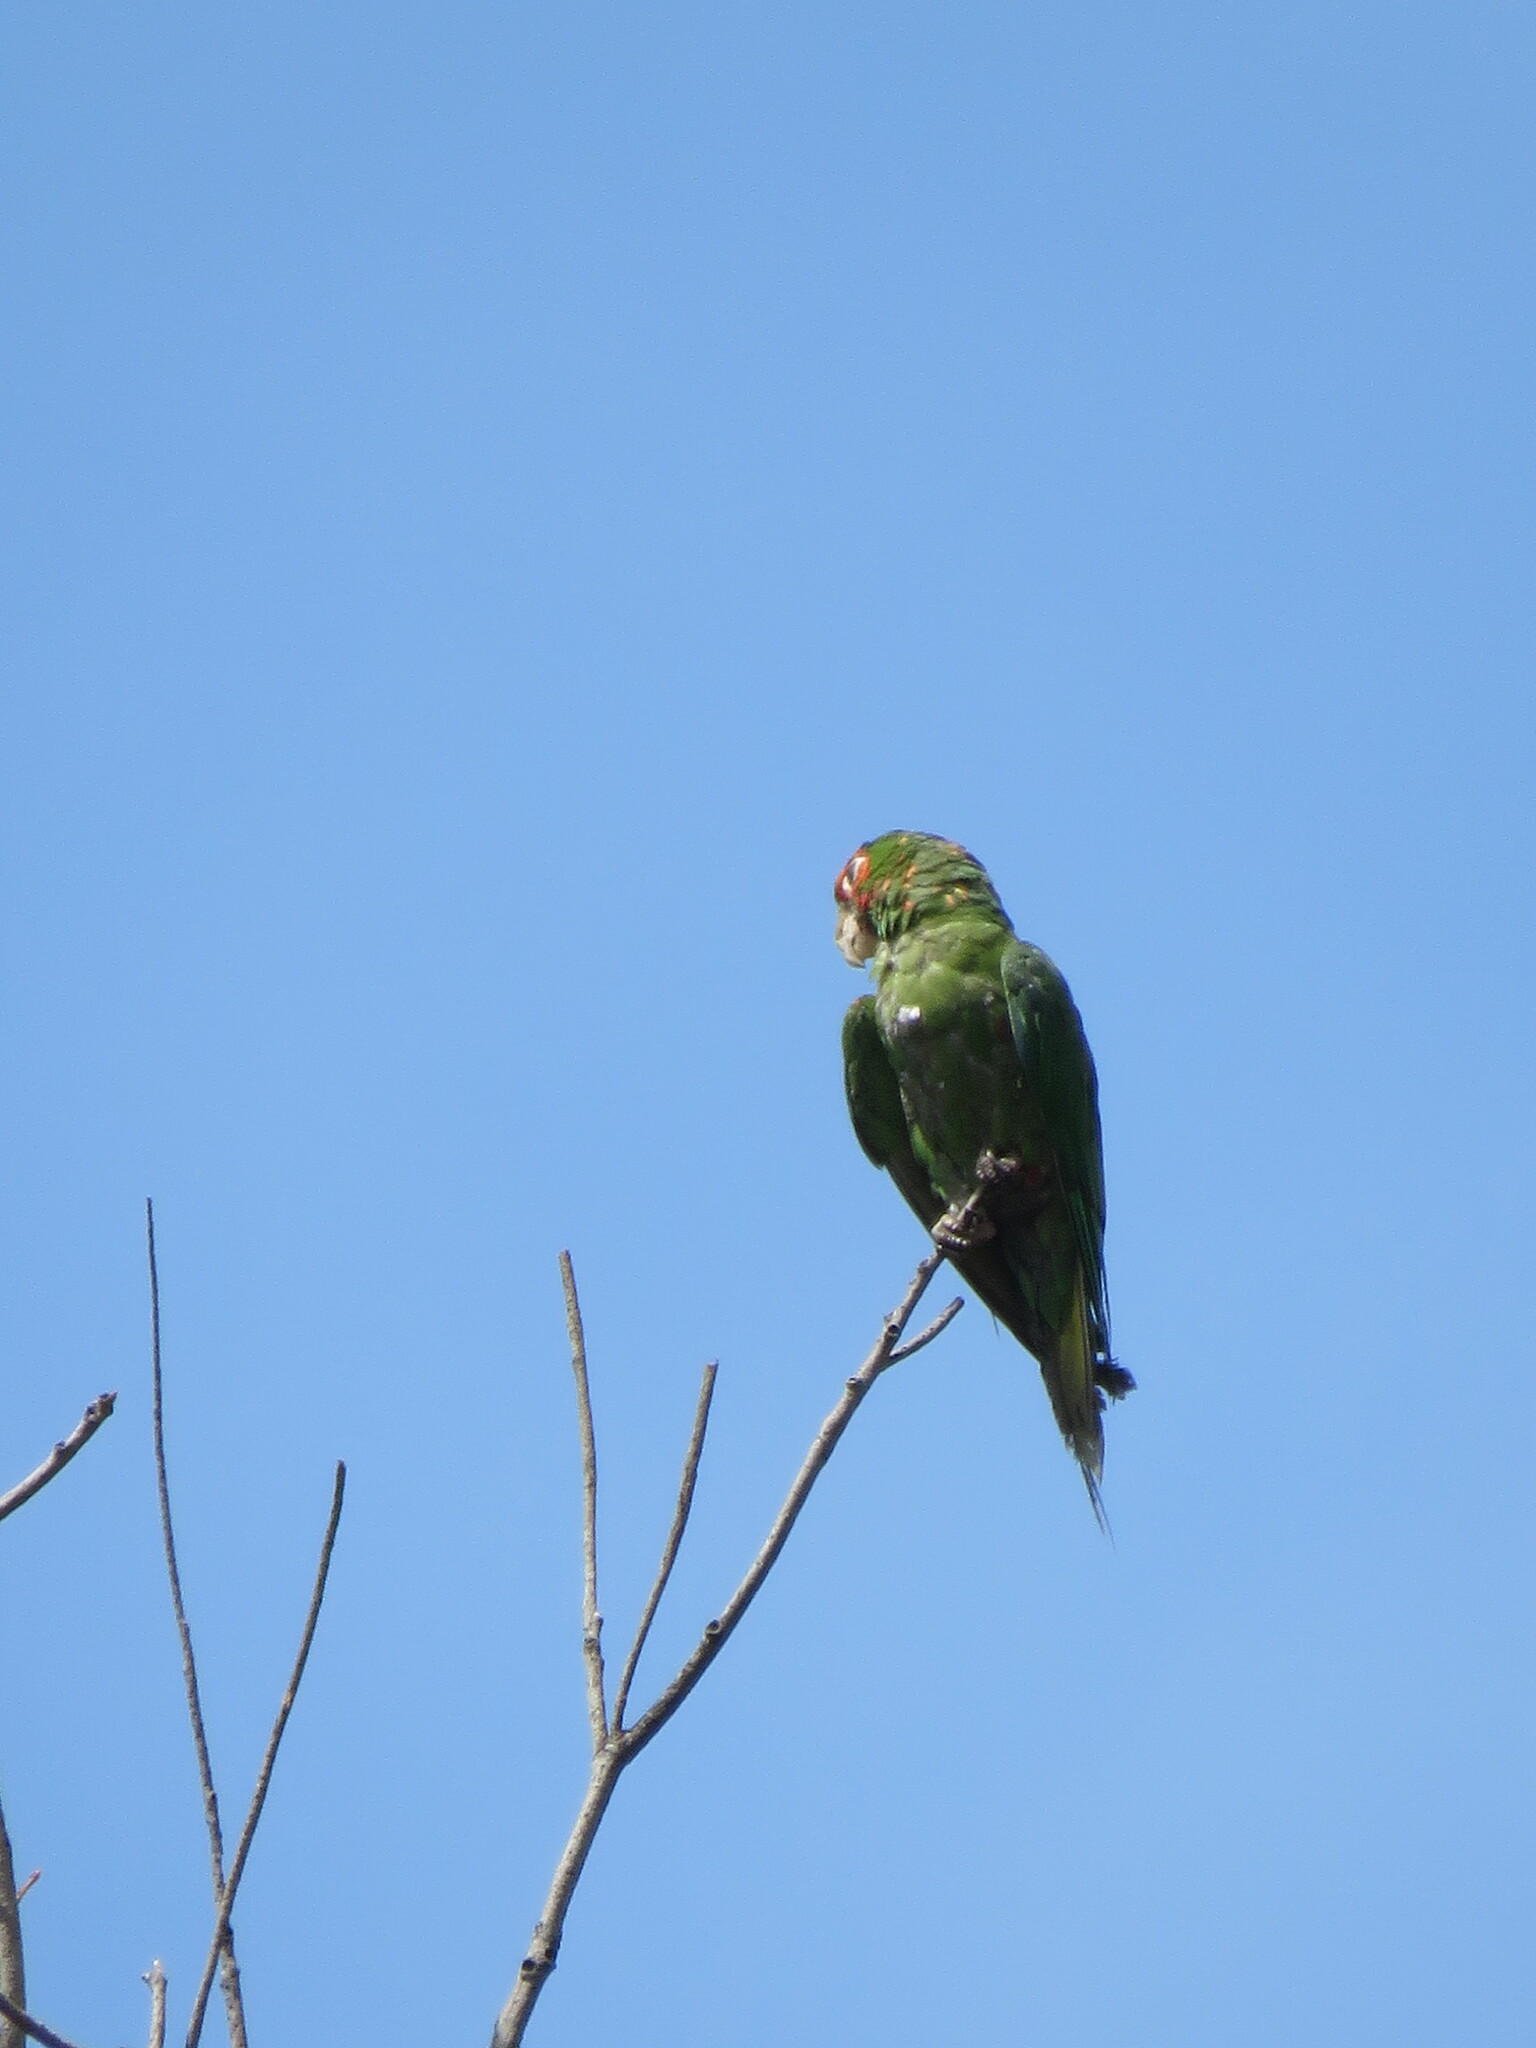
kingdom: Animalia
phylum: Chordata
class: Aves
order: Psittaciformes
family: Psittacidae
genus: Aratinga
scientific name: Aratinga mitrata
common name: Mitred parakeet
